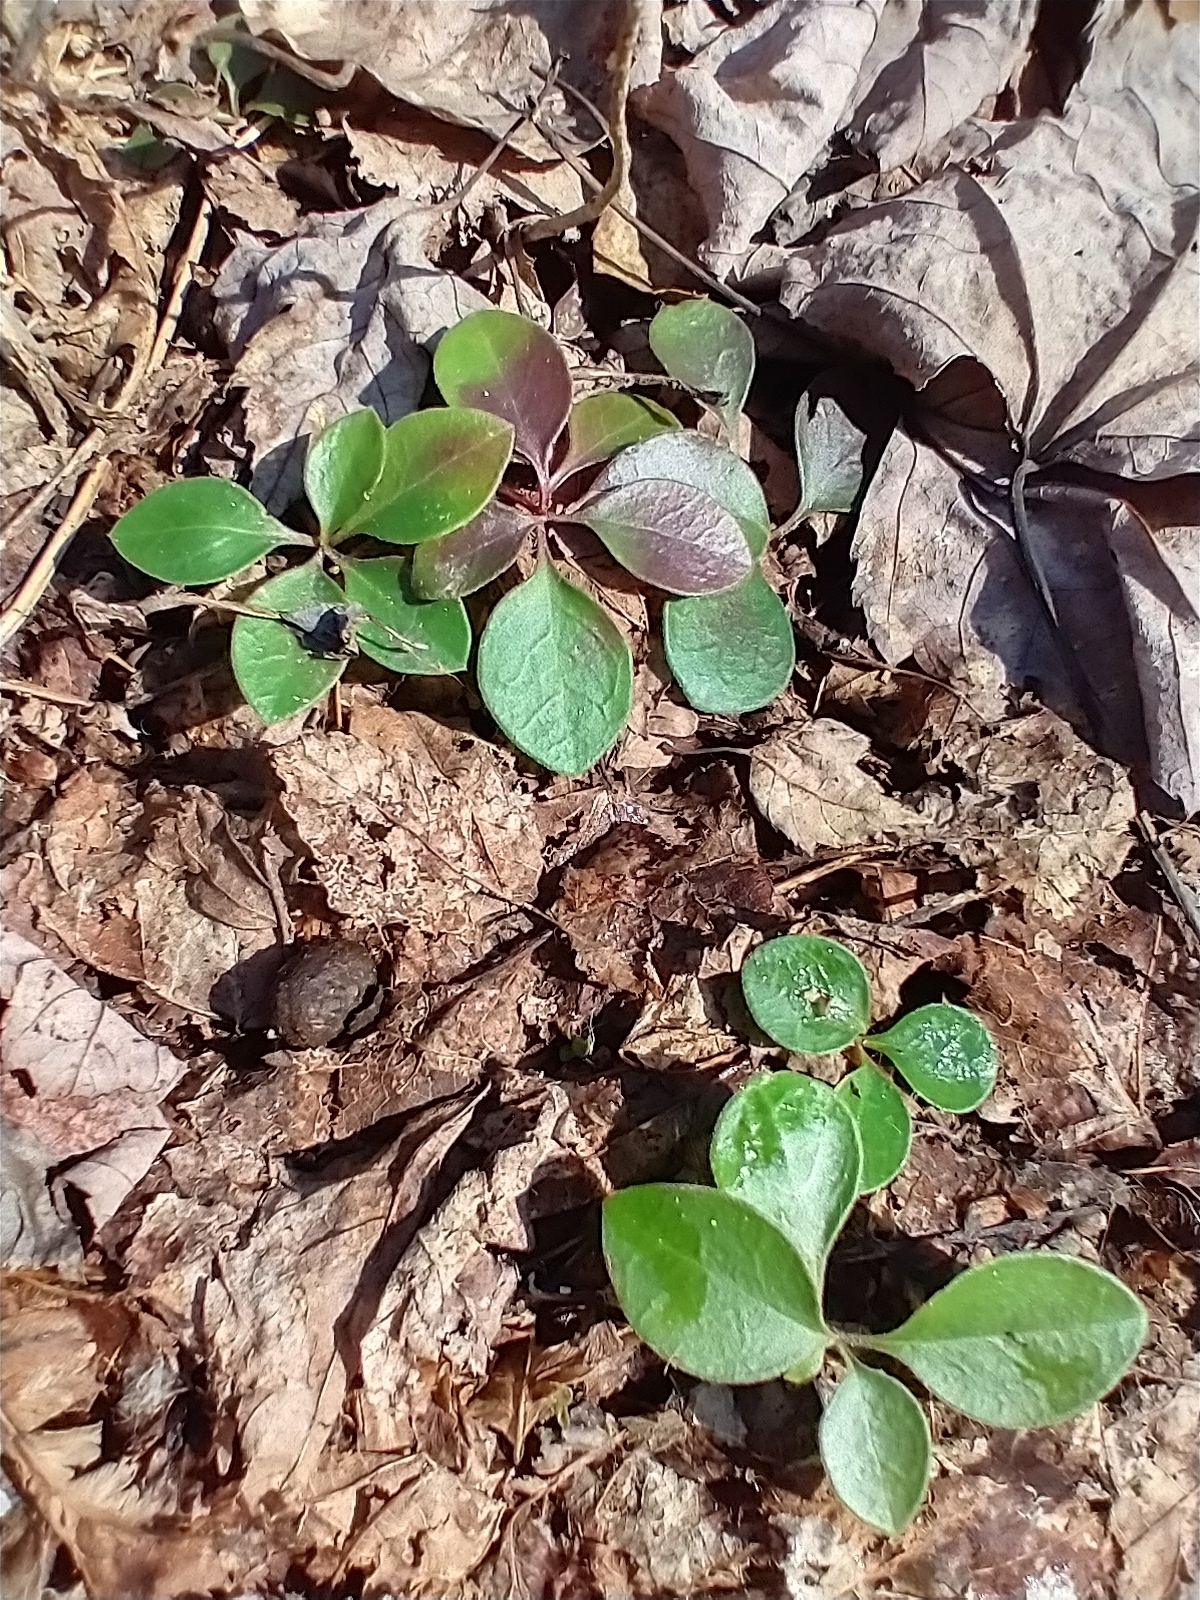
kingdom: Plantae
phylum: Tracheophyta
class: Magnoliopsida
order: Fabales
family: Polygalaceae
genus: Polygaloides
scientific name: Polygaloides paucifolia
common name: Bird-on-the-wing
